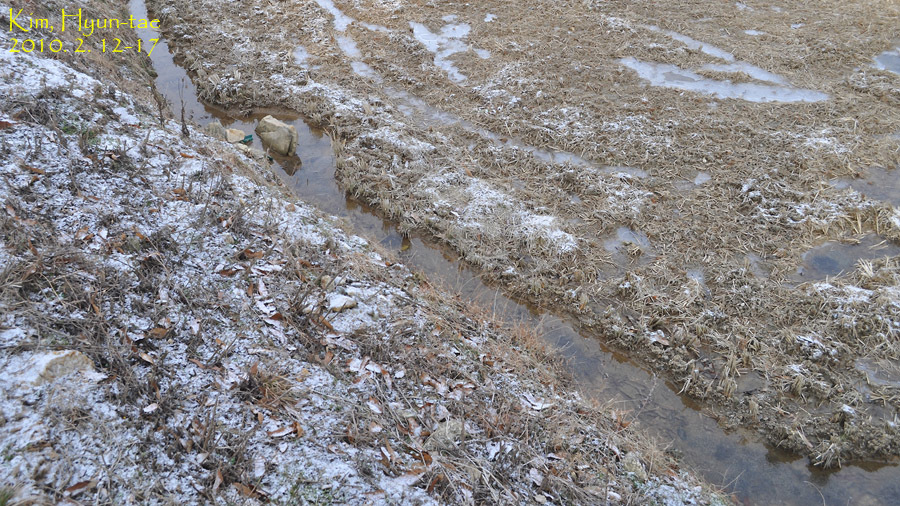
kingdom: Animalia
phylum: Chordata
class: Amphibia
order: Anura
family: Ranidae
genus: Rana
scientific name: Rana uenoi
